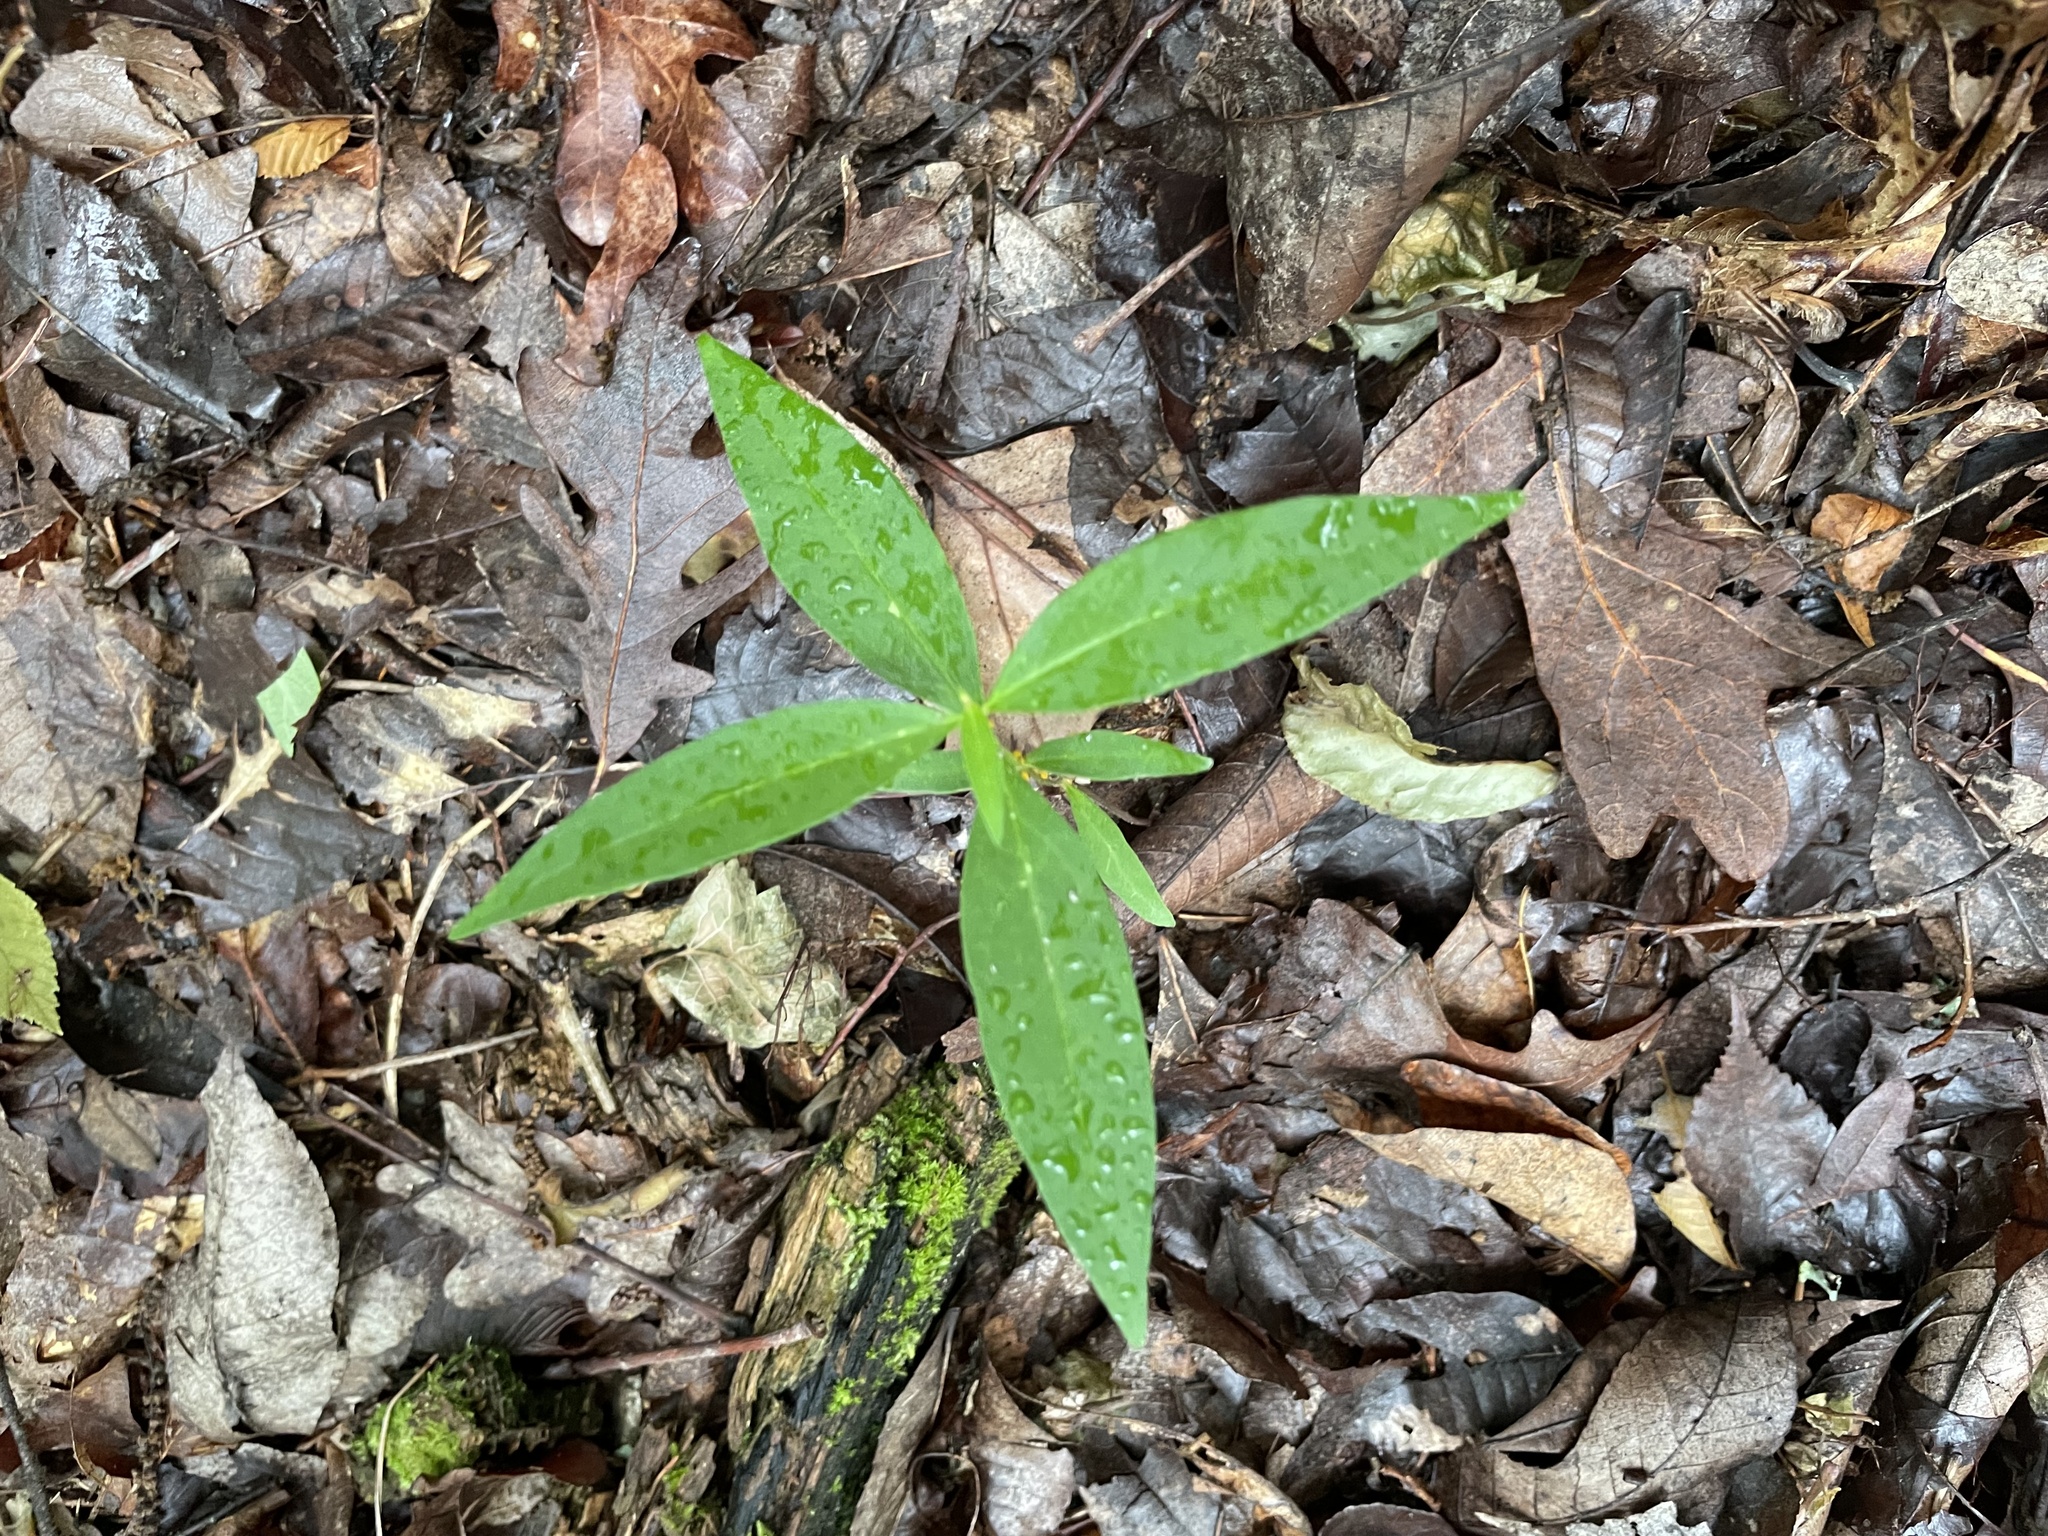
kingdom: Plantae
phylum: Tracheophyta
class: Magnoliopsida
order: Gentianales
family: Apocynaceae
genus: Asclepias
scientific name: Asclepias quadrifolia
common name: Whorled milkweed
